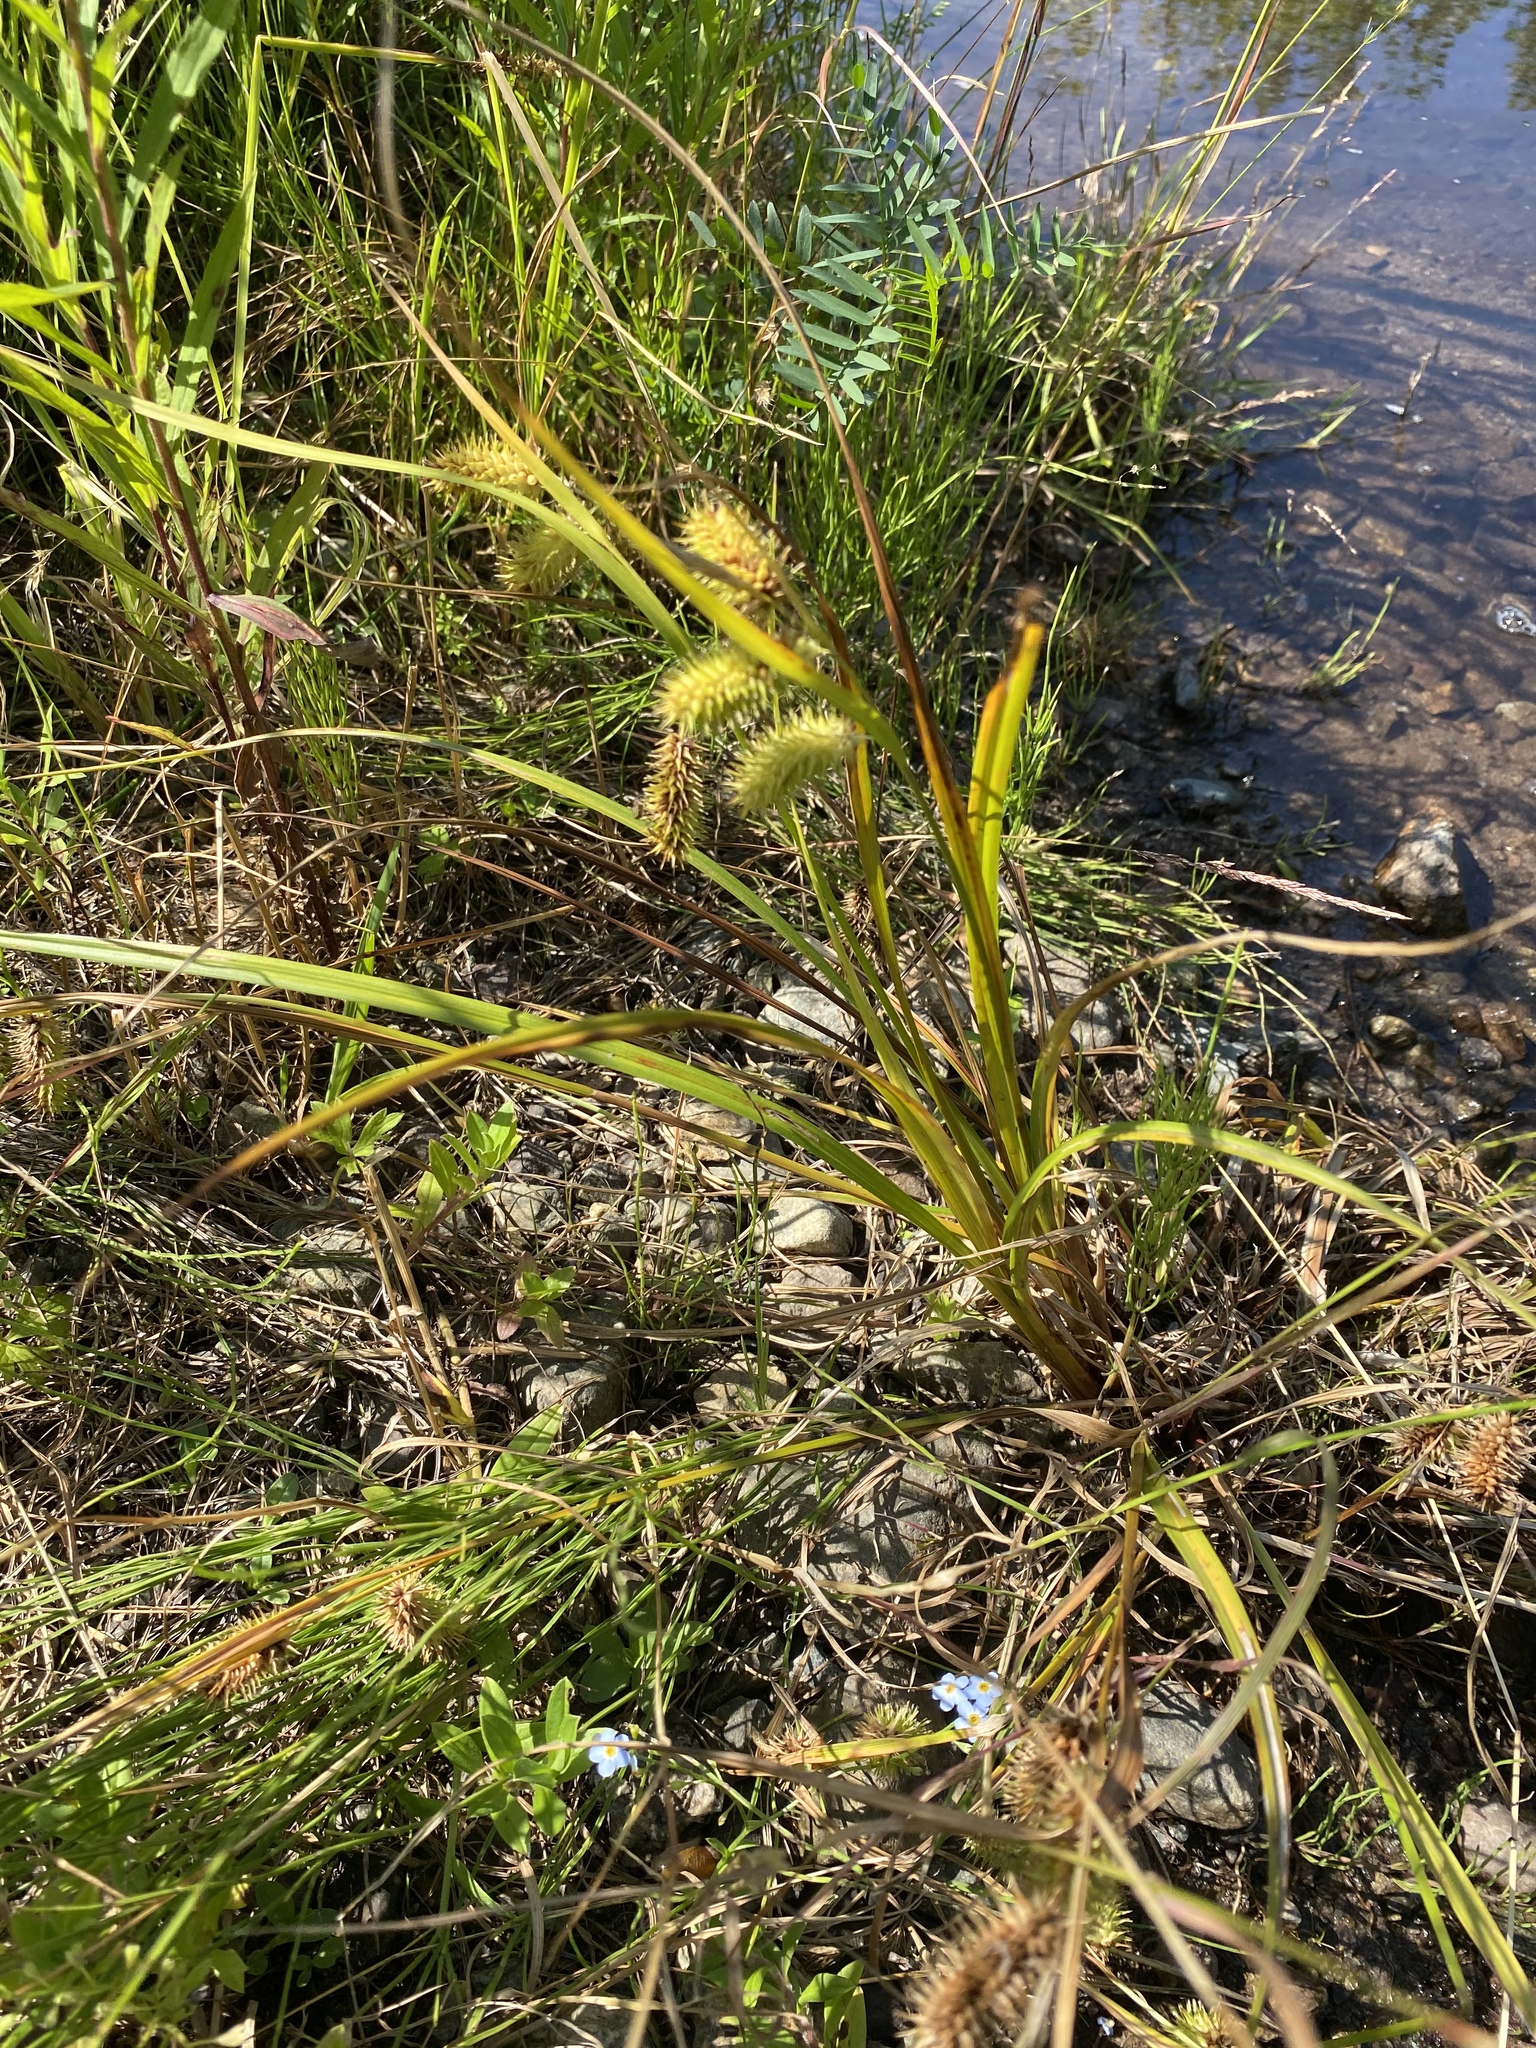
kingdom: Plantae
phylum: Tracheophyta
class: Liliopsida
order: Poales
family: Cyperaceae
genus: Carex
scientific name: Carex lurida
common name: Sallow sedge
